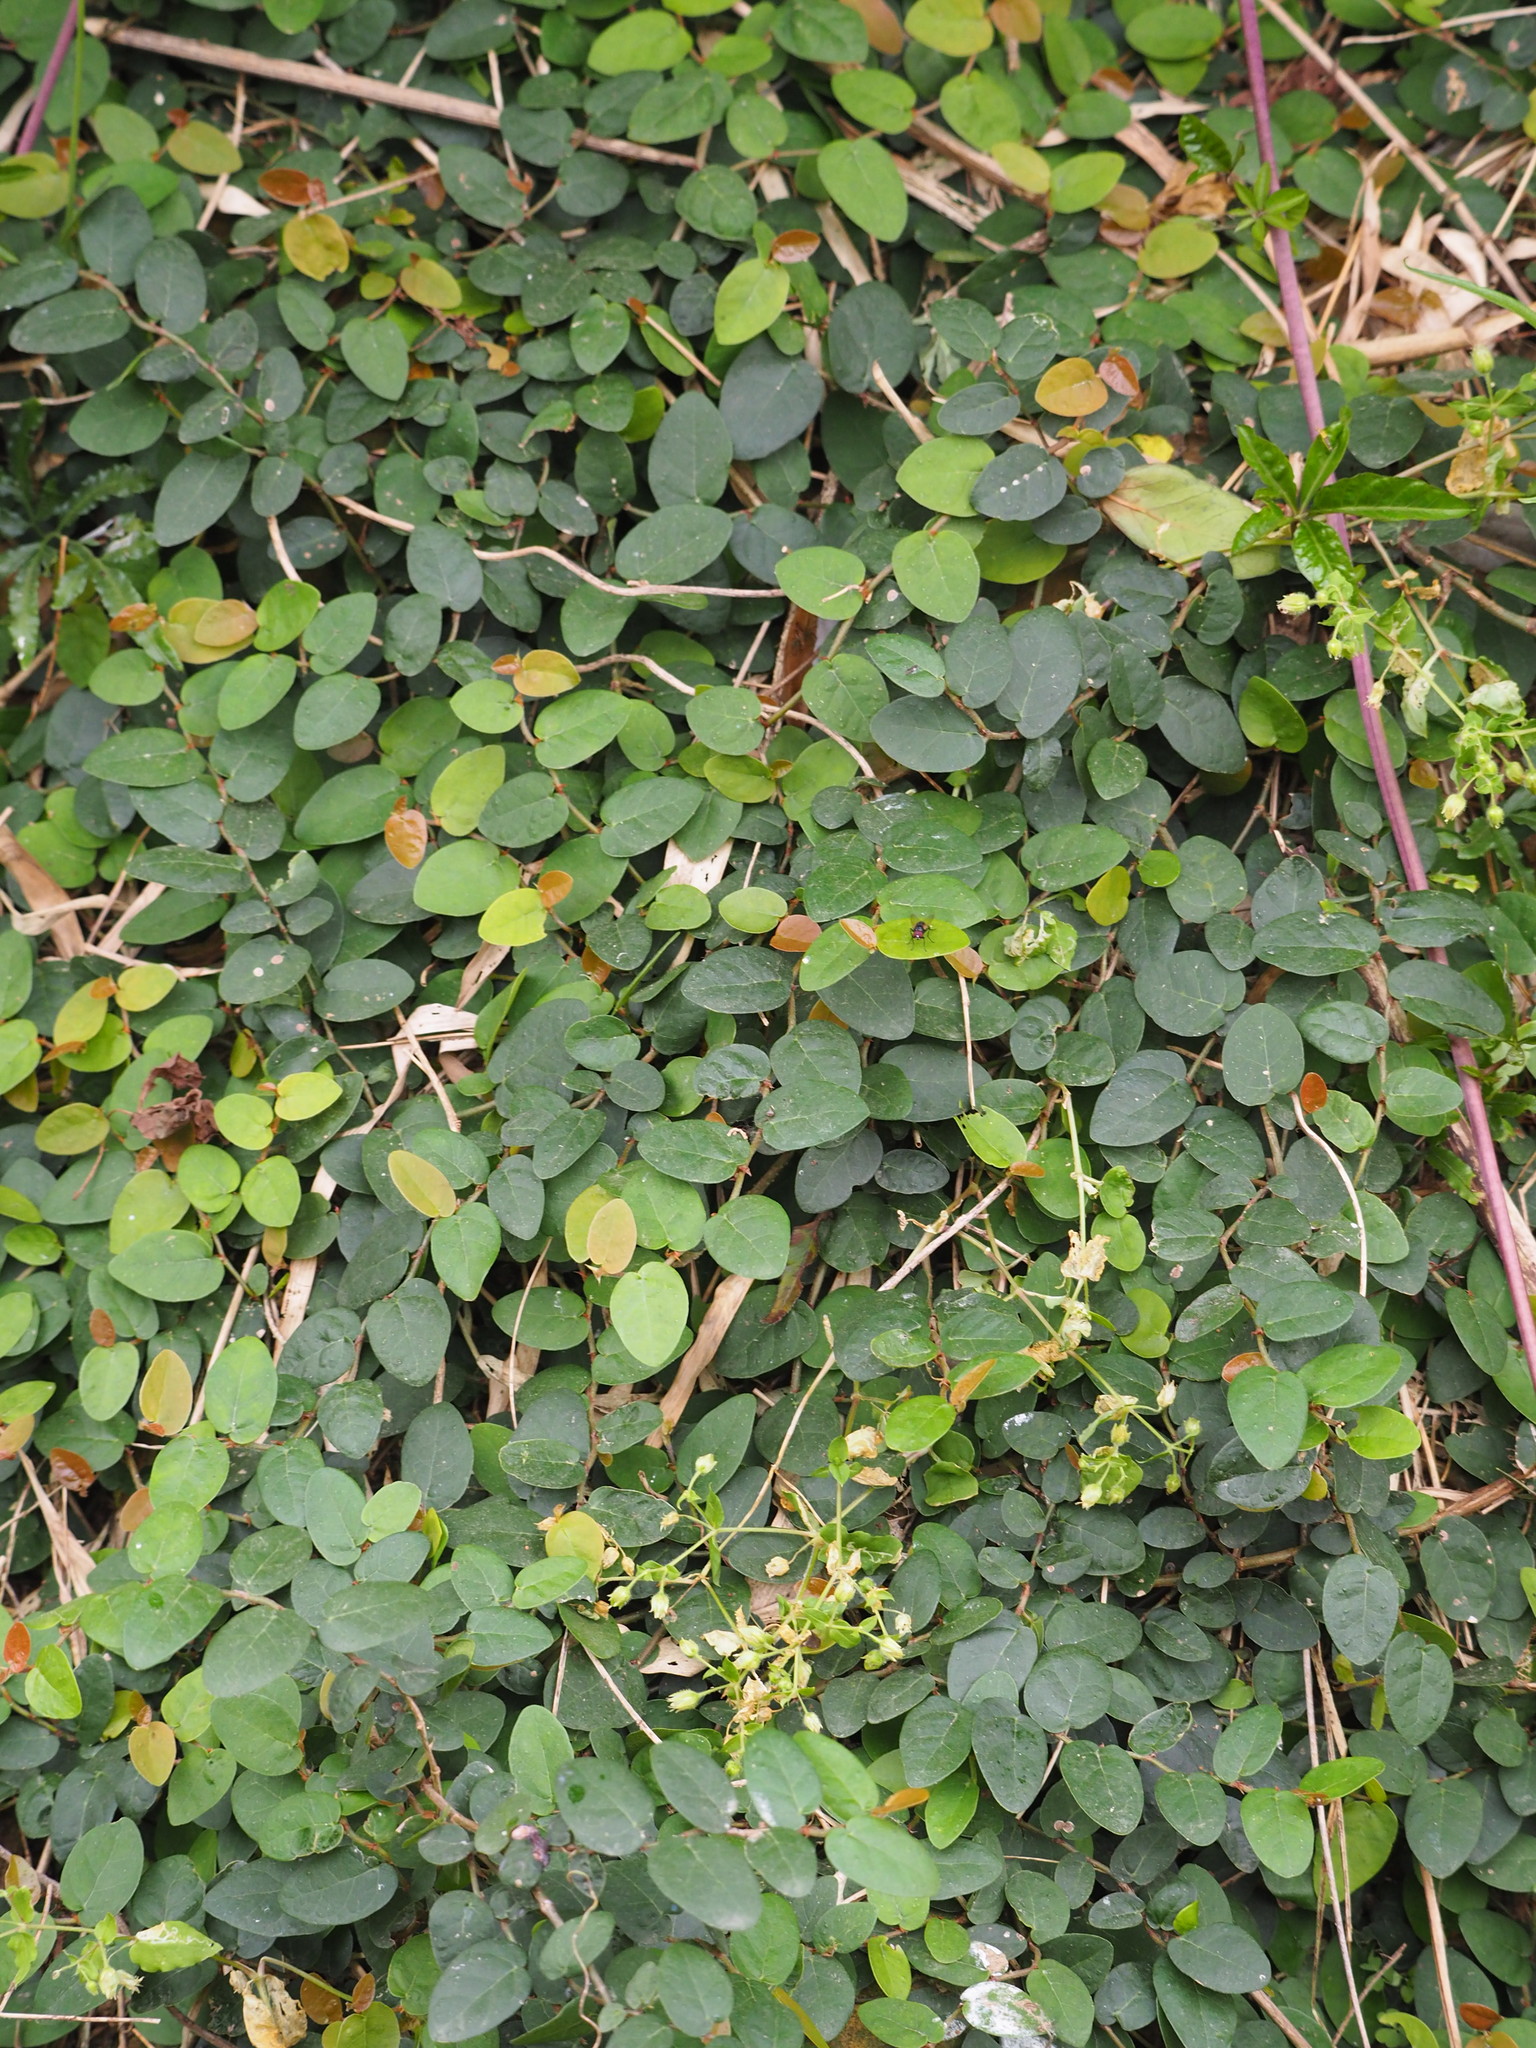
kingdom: Plantae
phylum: Tracheophyta
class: Magnoliopsida
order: Rosales
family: Moraceae
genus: Ficus
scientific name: Ficus pumila
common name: Climbingfig
